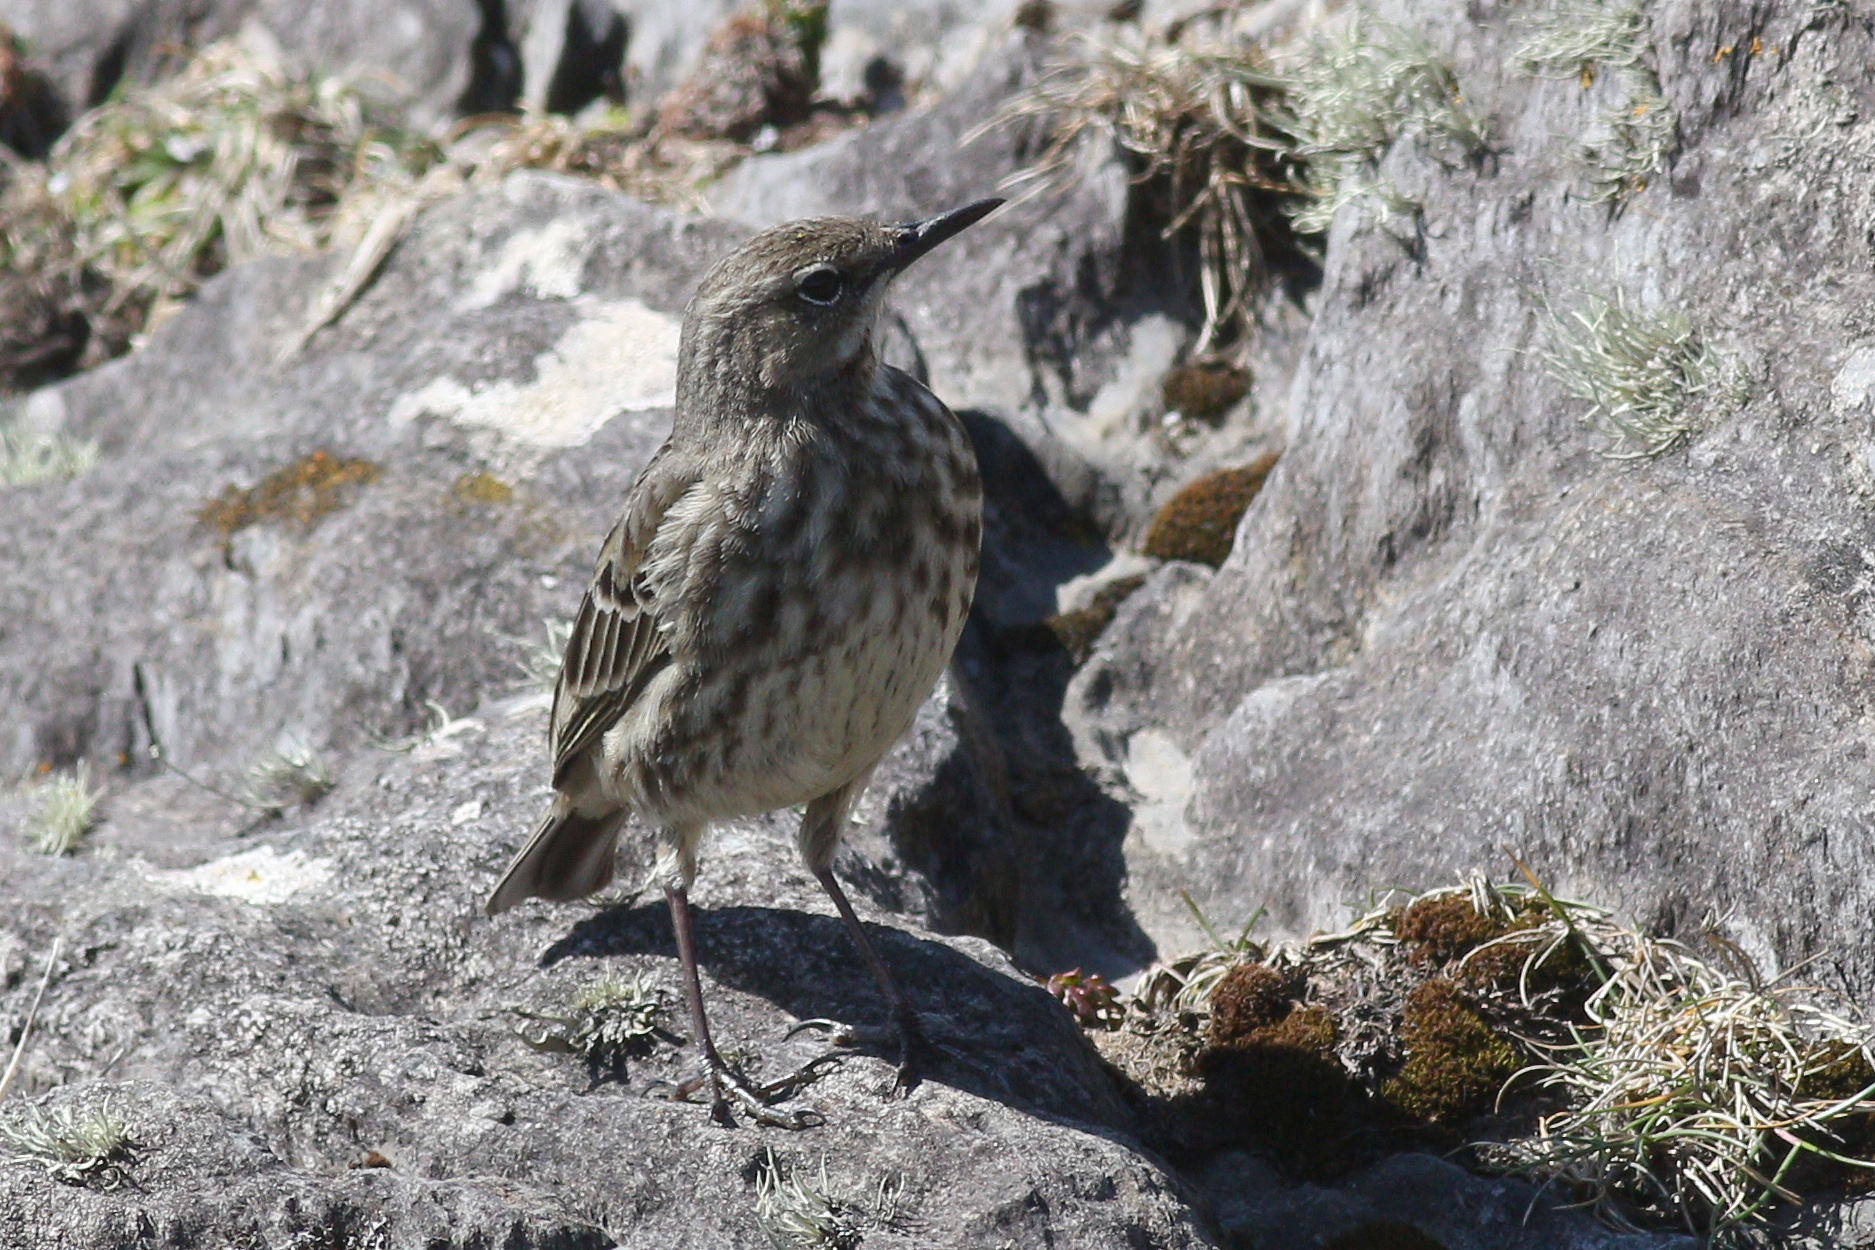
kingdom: Animalia
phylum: Chordata
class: Aves
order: Passeriformes
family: Motacillidae
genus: Anthus
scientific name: Anthus petrosus
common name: Eurasian rock pipit
